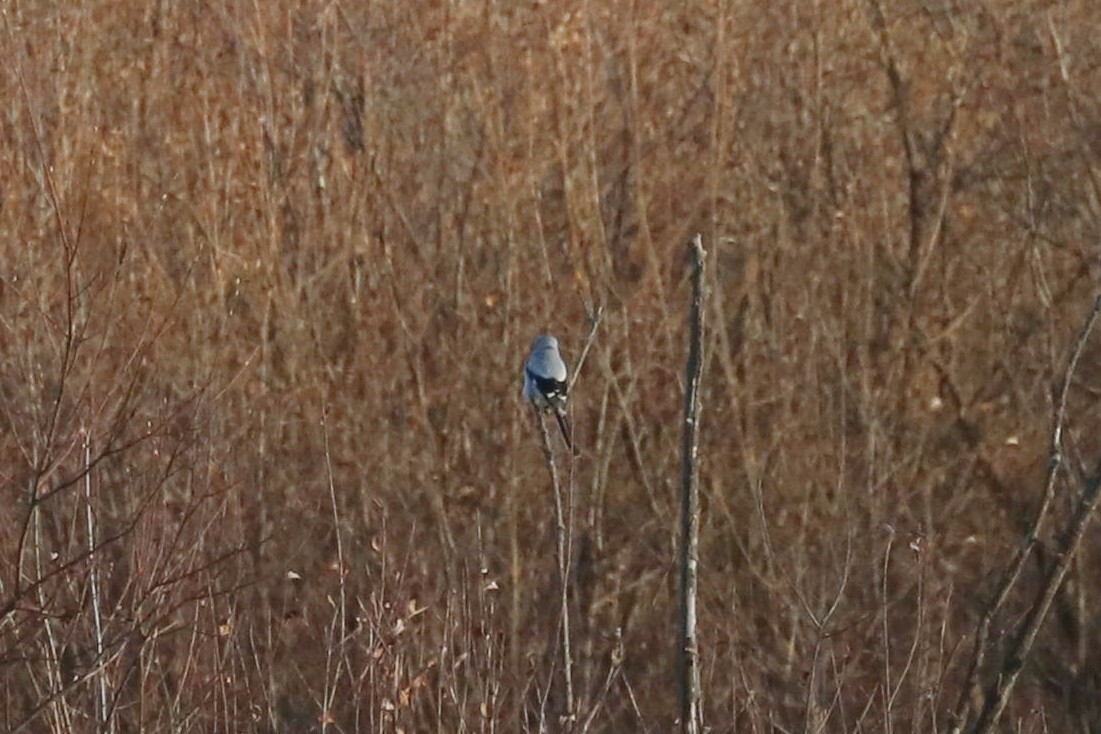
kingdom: Animalia
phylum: Chordata
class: Aves
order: Passeriformes
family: Laniidae
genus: Lanius
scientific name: Lanius excubitor
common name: Great grey shrike
